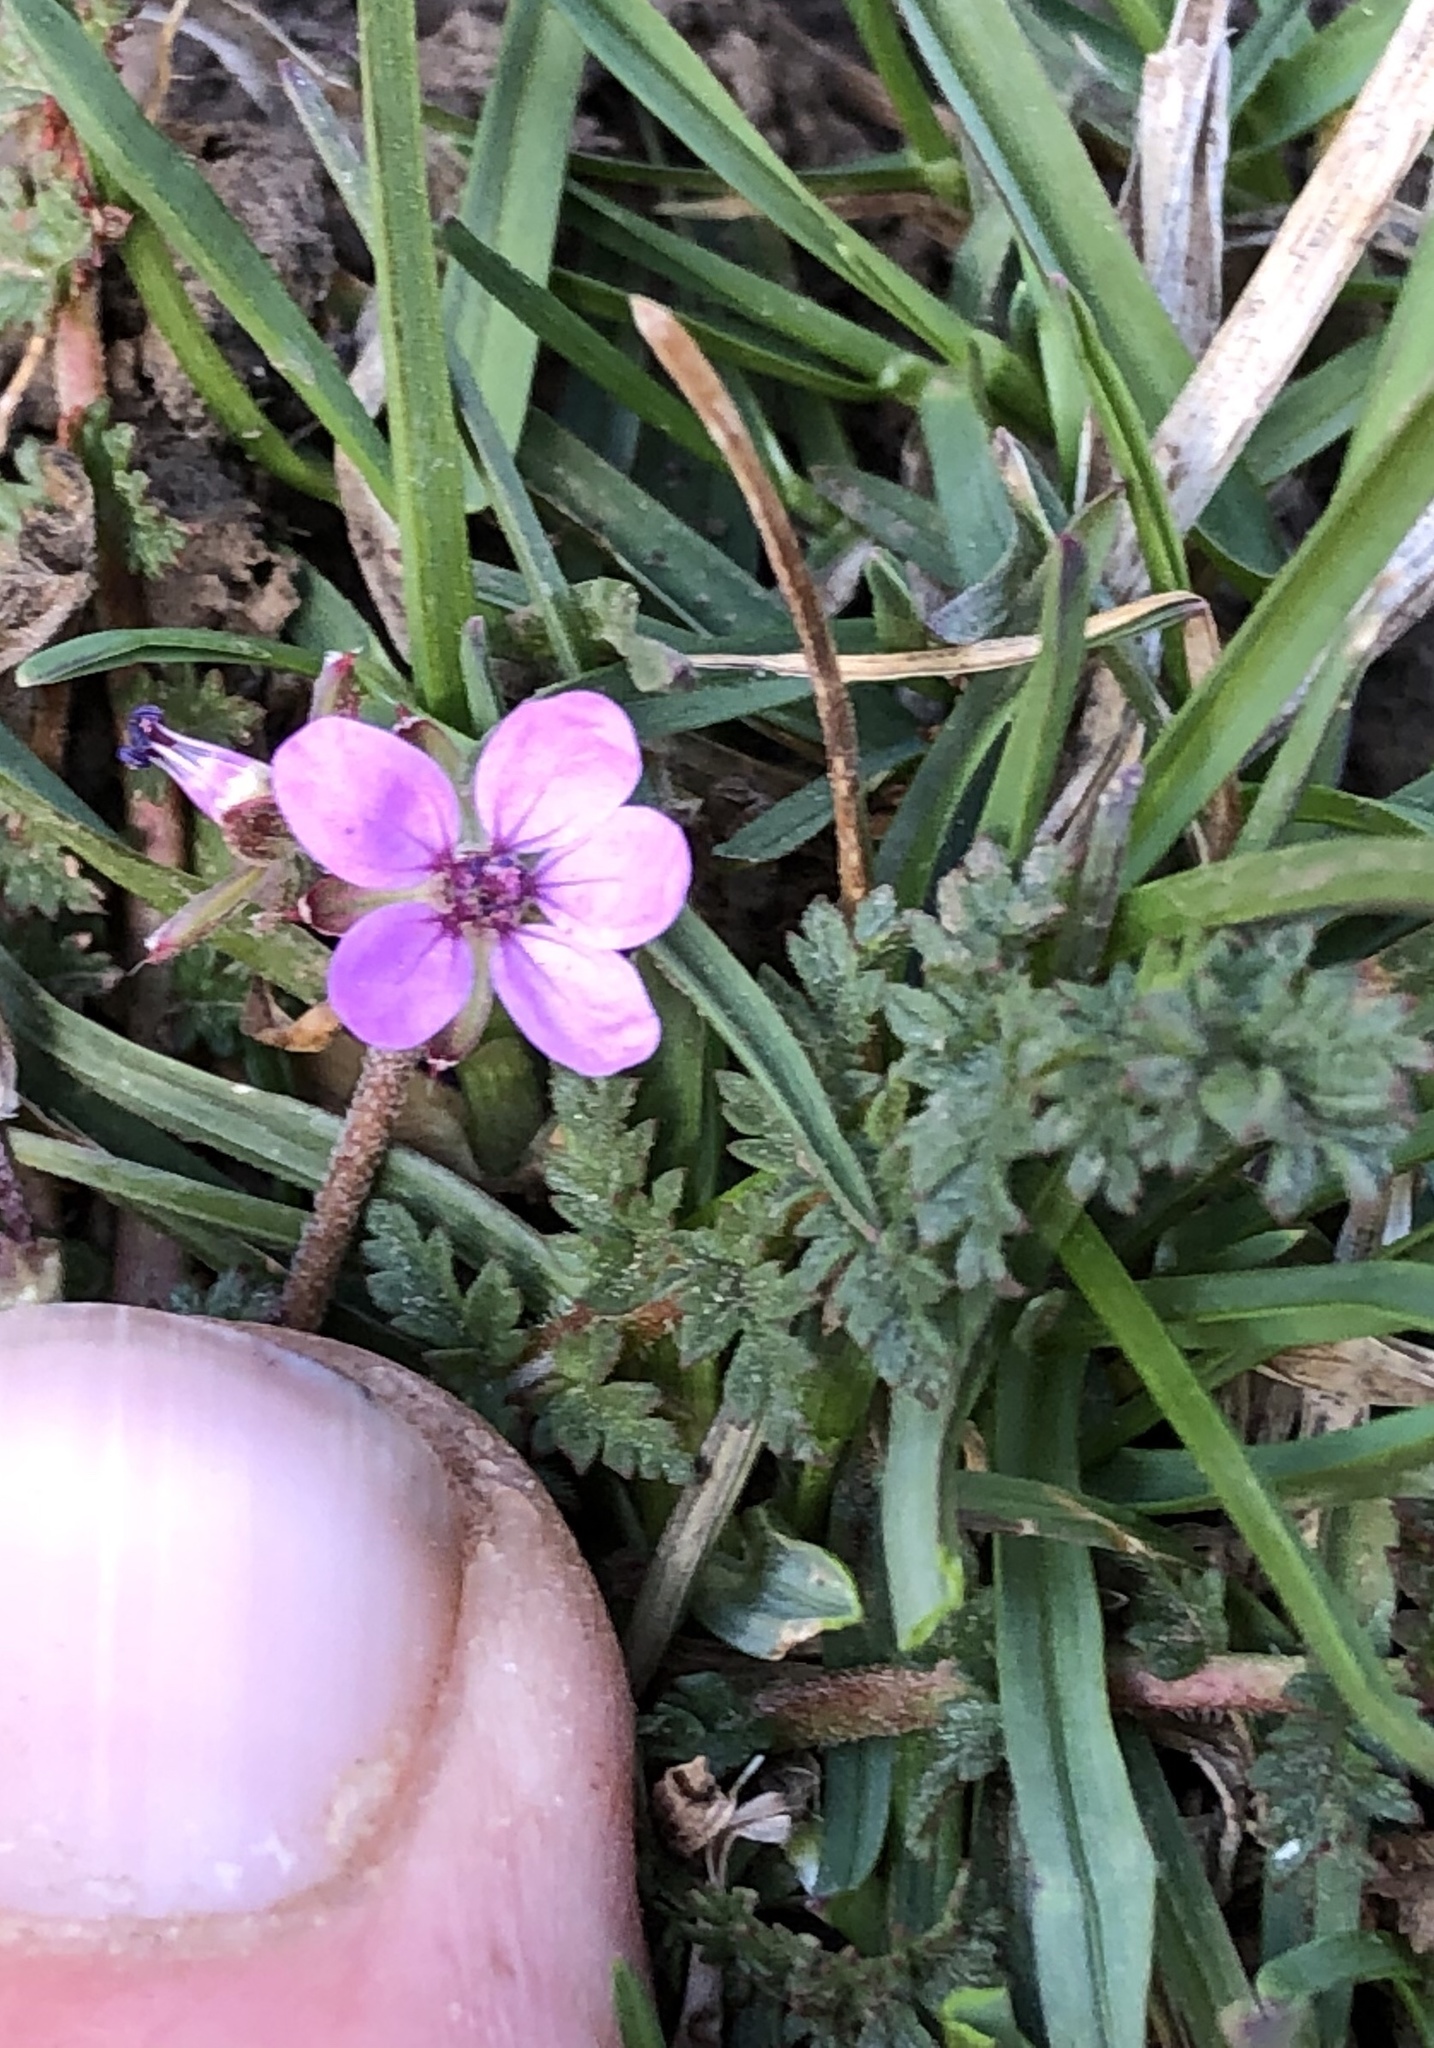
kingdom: Plantae
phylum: Tracheophyta
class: Magnoliopsida
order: Geraniales
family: Geraniaceae
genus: Erodium
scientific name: Erodium cicutarium
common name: Common stork's-bill
